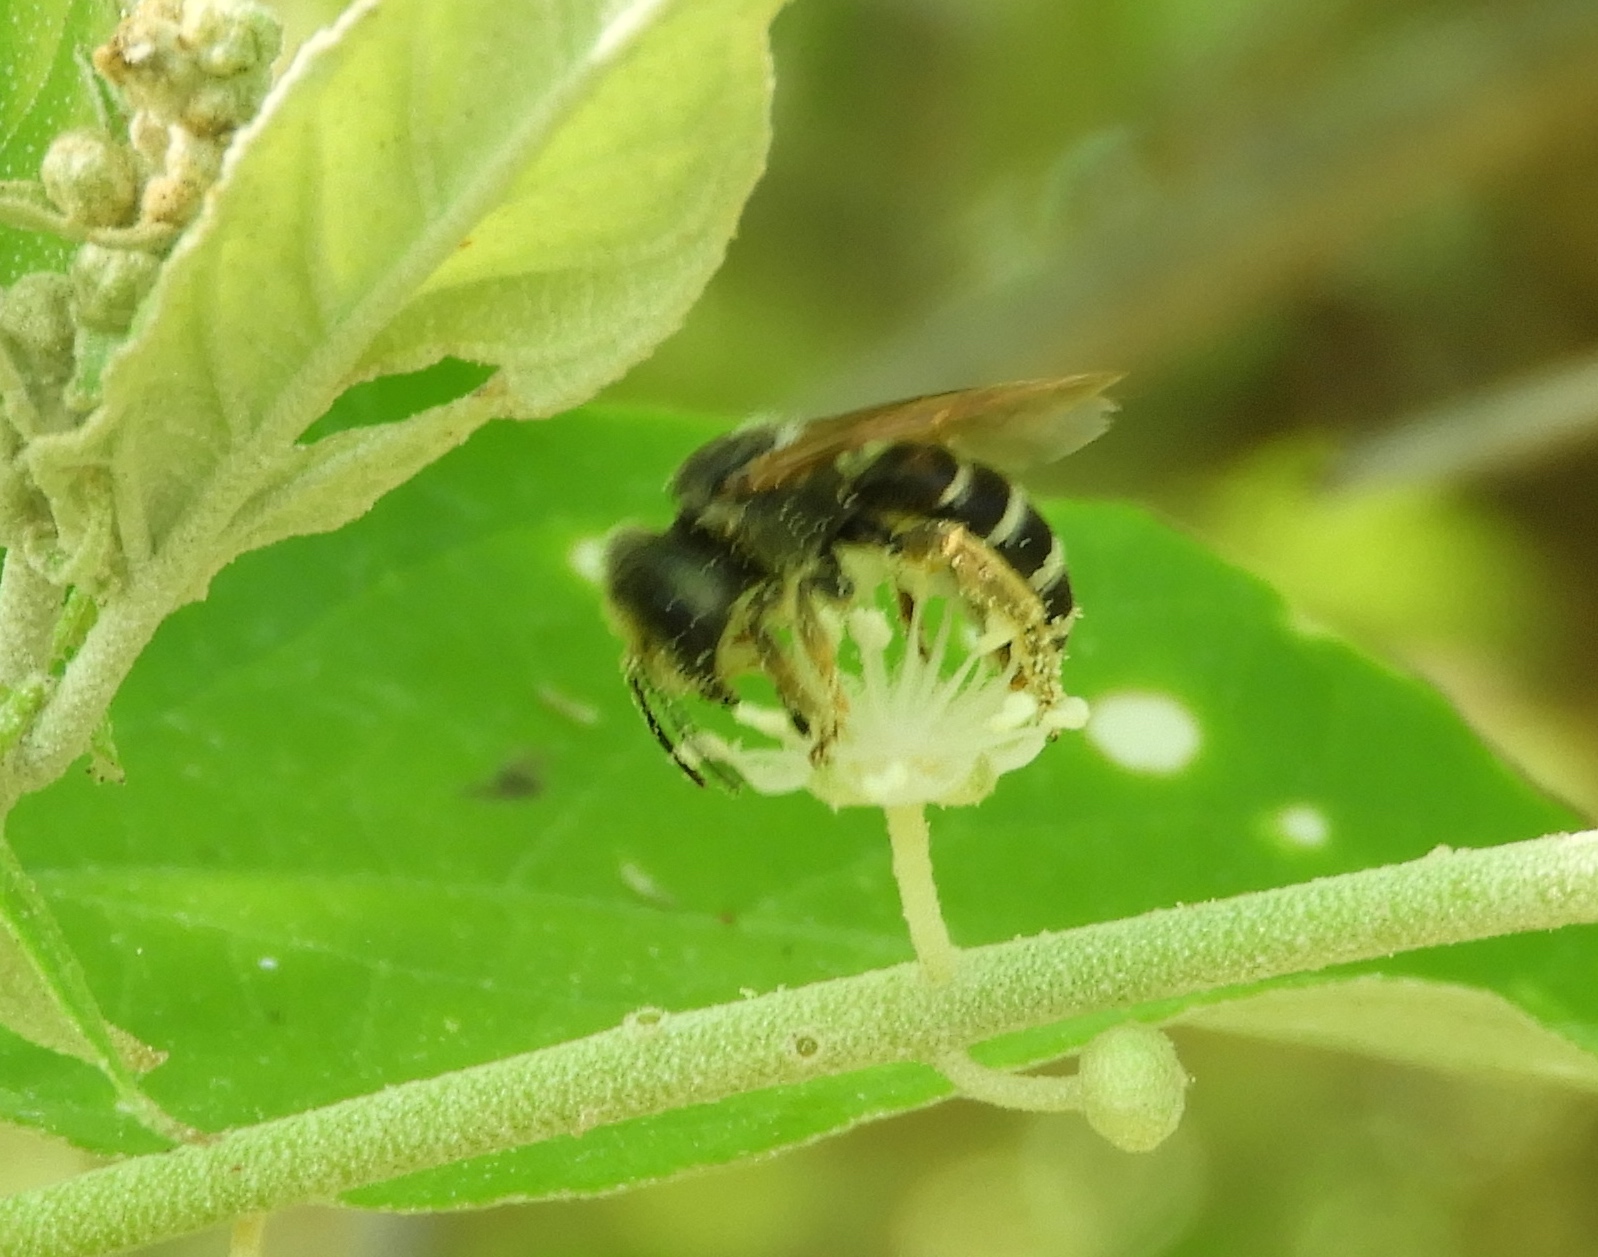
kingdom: Animalia
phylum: Arthropoda
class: Insecta
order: Hymenoptera
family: Halictidae
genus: Halictus
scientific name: Halictus ligatus
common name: Ligated furrow bee
